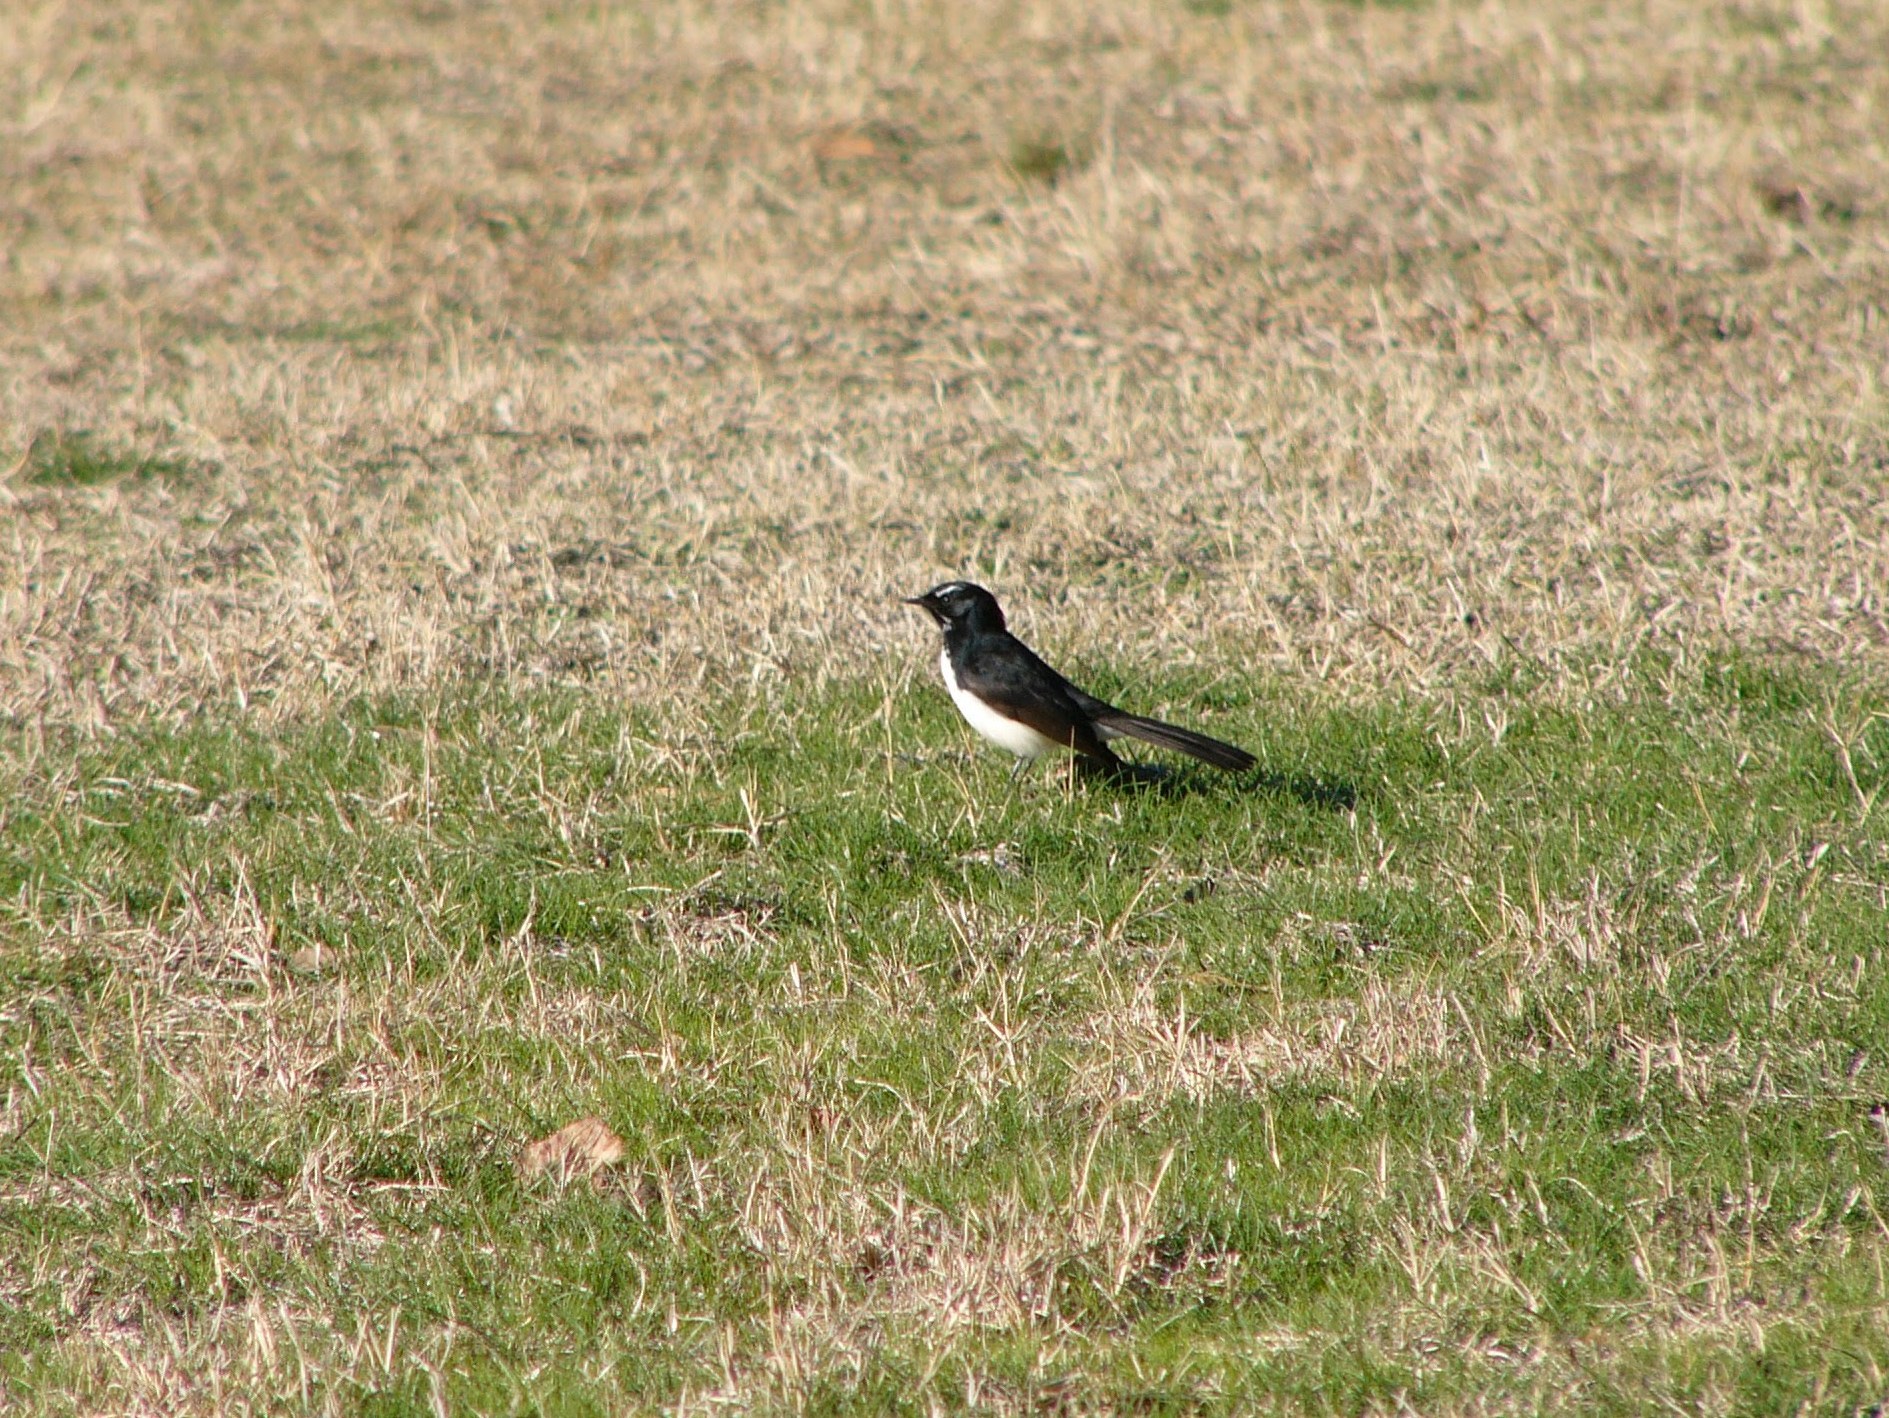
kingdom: Animalia
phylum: Chordata
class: Aves
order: Passeriformes
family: Rhipiduridae
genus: Rhipidura
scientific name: Rhipidura leucophrys
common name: Willie wagtail
